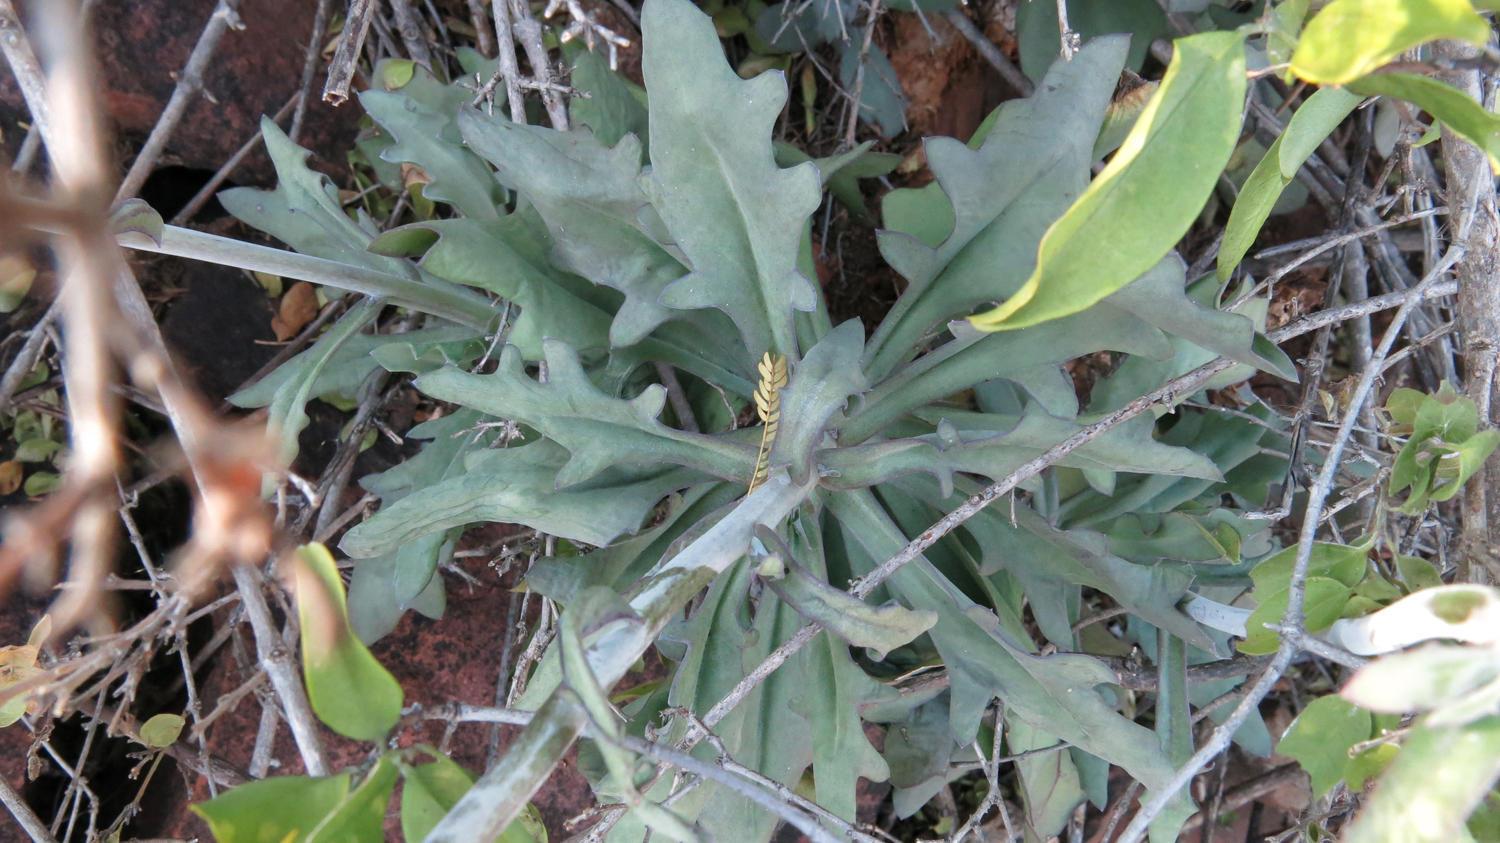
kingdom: Plantae
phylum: Tracheophyta
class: Magnoliopsida
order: Asterales
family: Asteraceae
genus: Kleinia
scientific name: Kleinia fulgens
